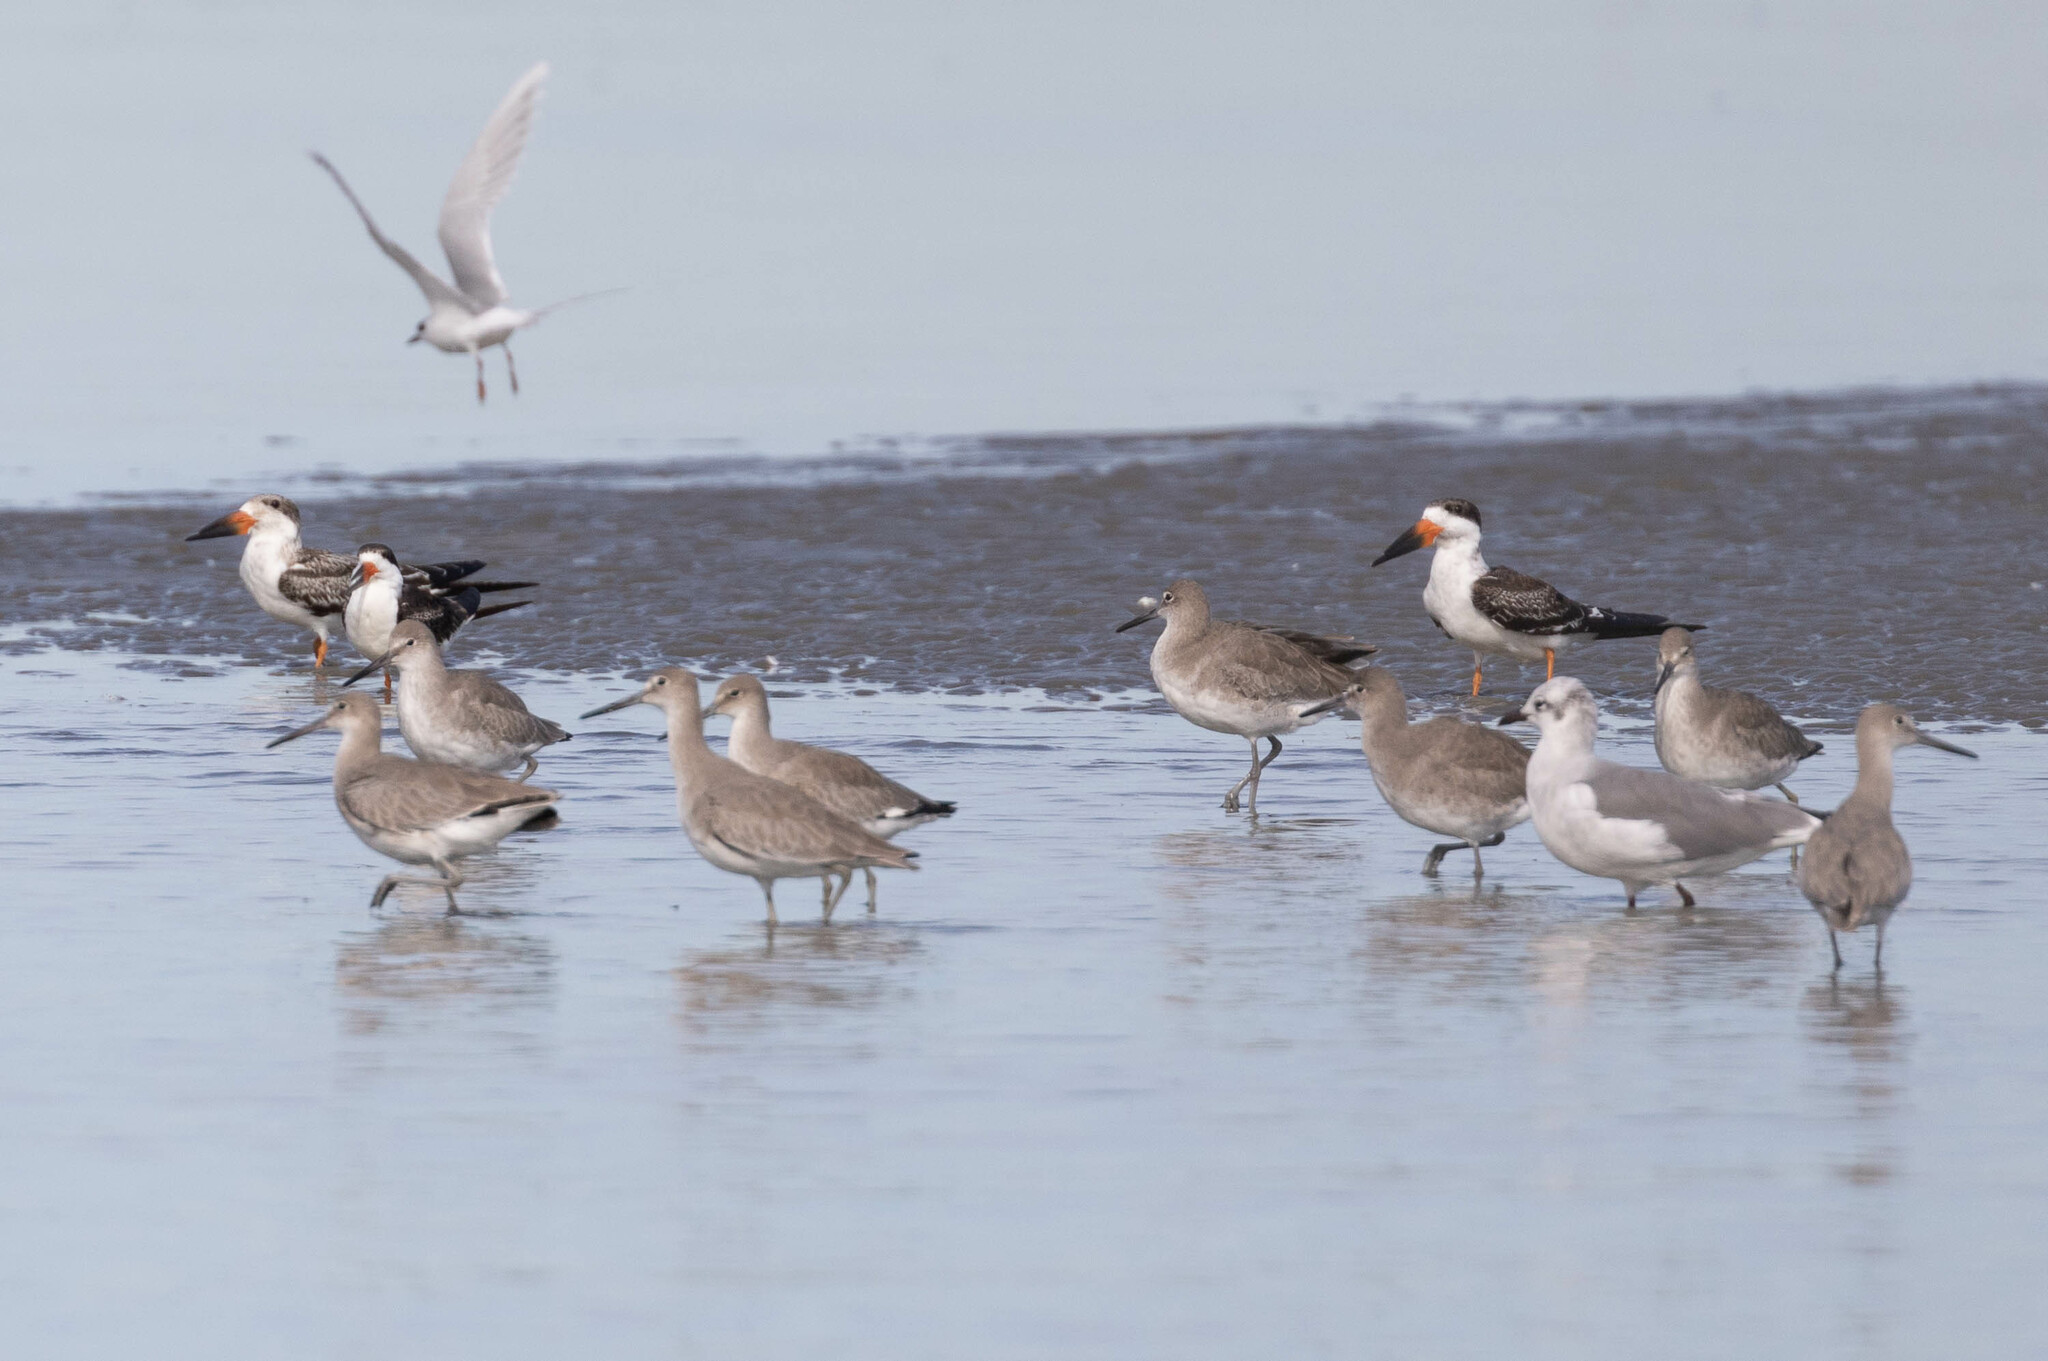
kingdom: Animalia
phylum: Chordata
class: Aves
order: Charadriiformes
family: Laridae
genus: Rynchops
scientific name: Rynchops niger
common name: Black skimmer
